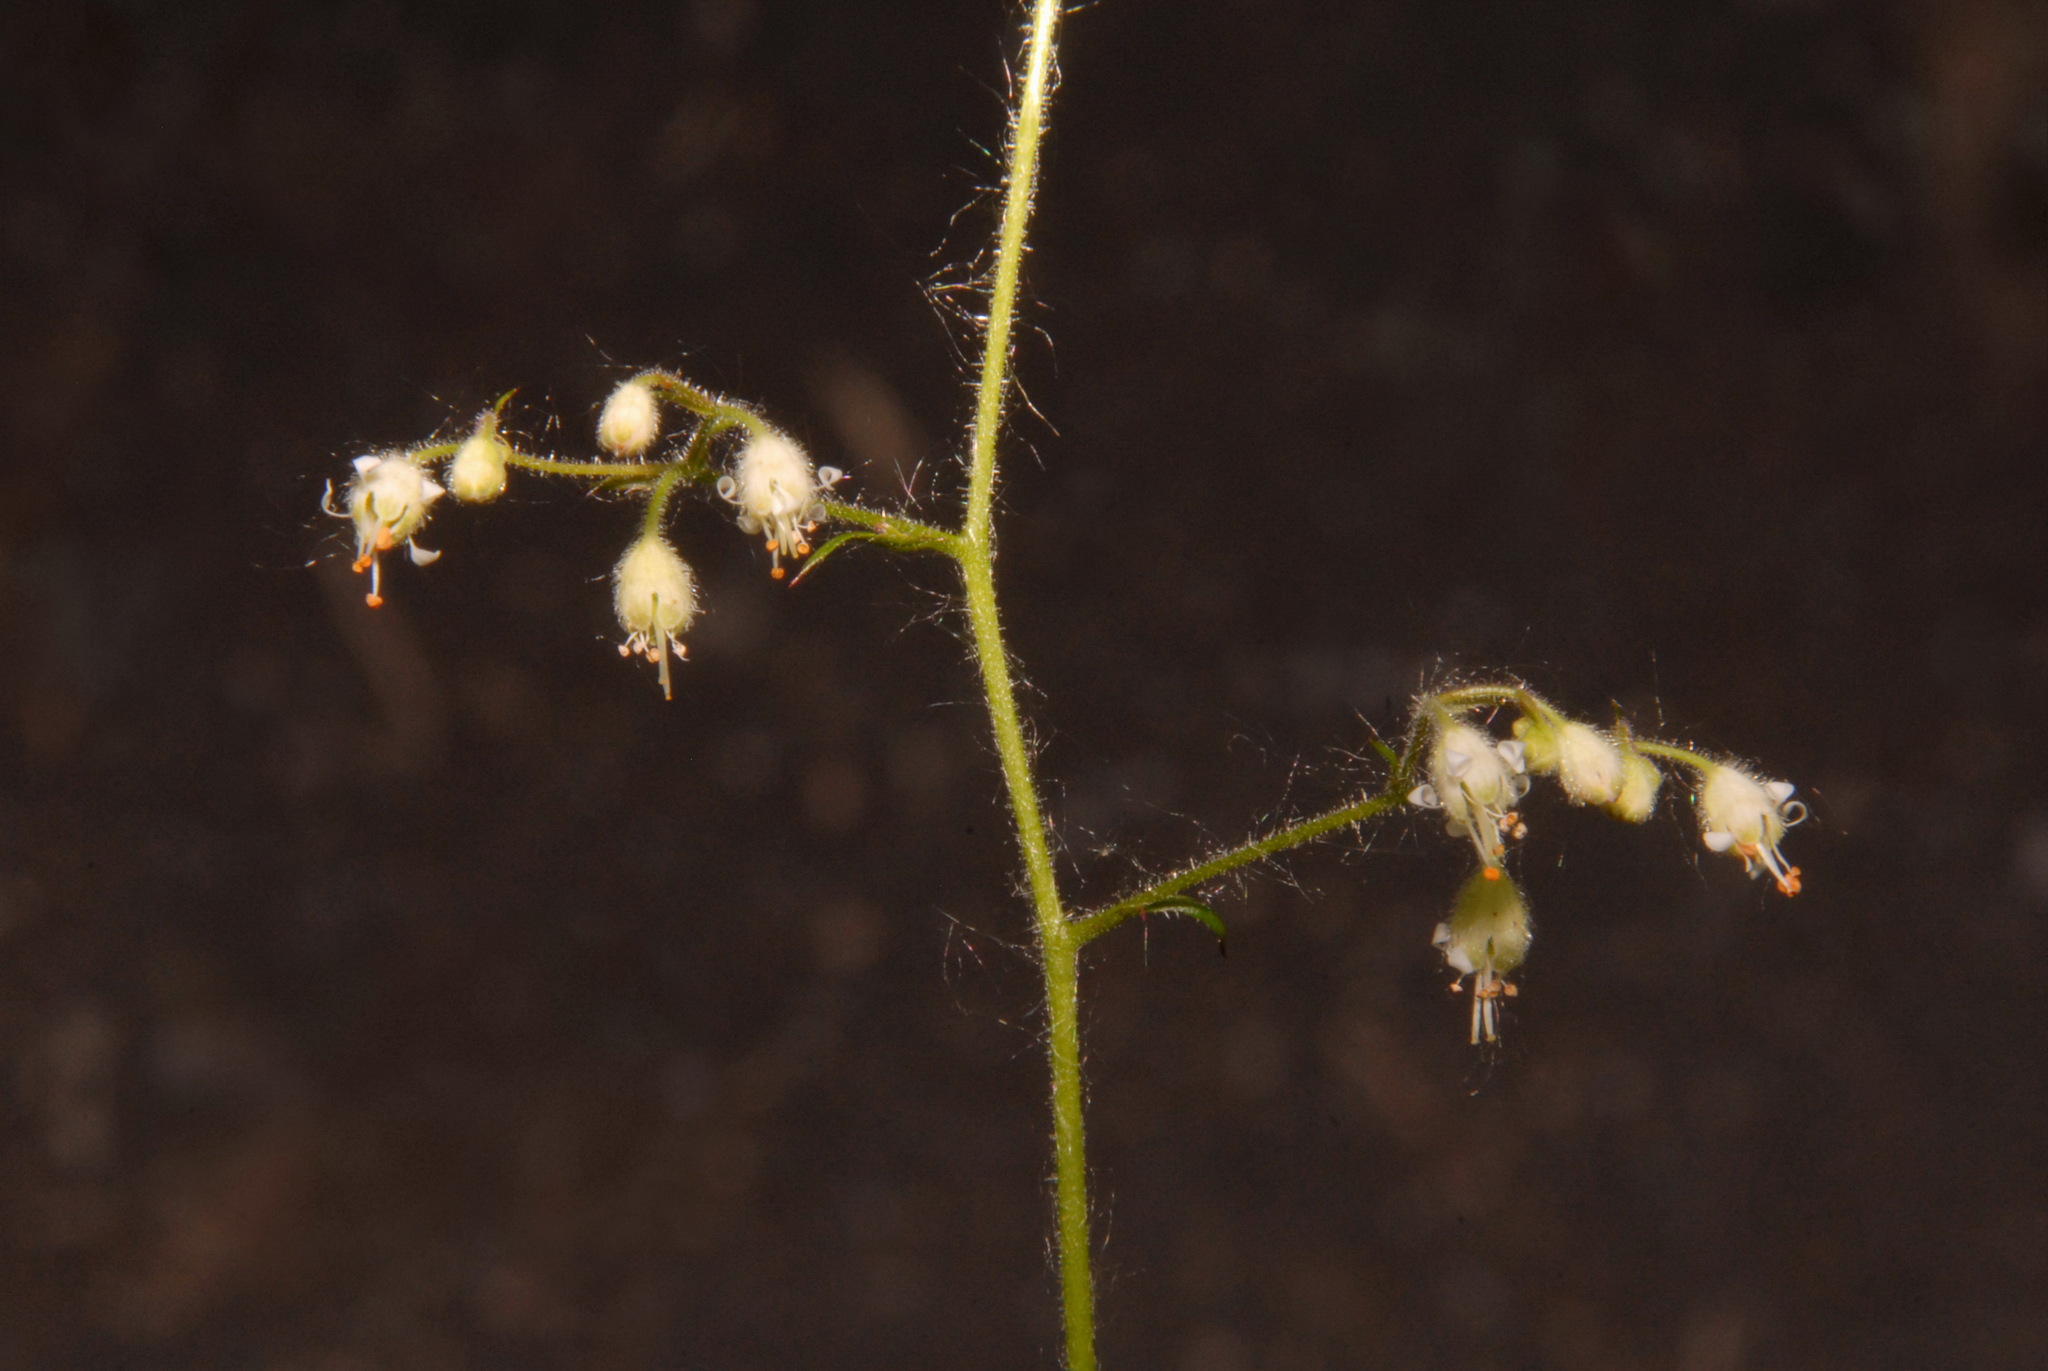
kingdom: Plantae
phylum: Tracheophyta
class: Magnoliopsida
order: Saxifragales
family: Saxifragaceae
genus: Heuchera
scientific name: Heuchera glabra
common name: Alpine alumroot
